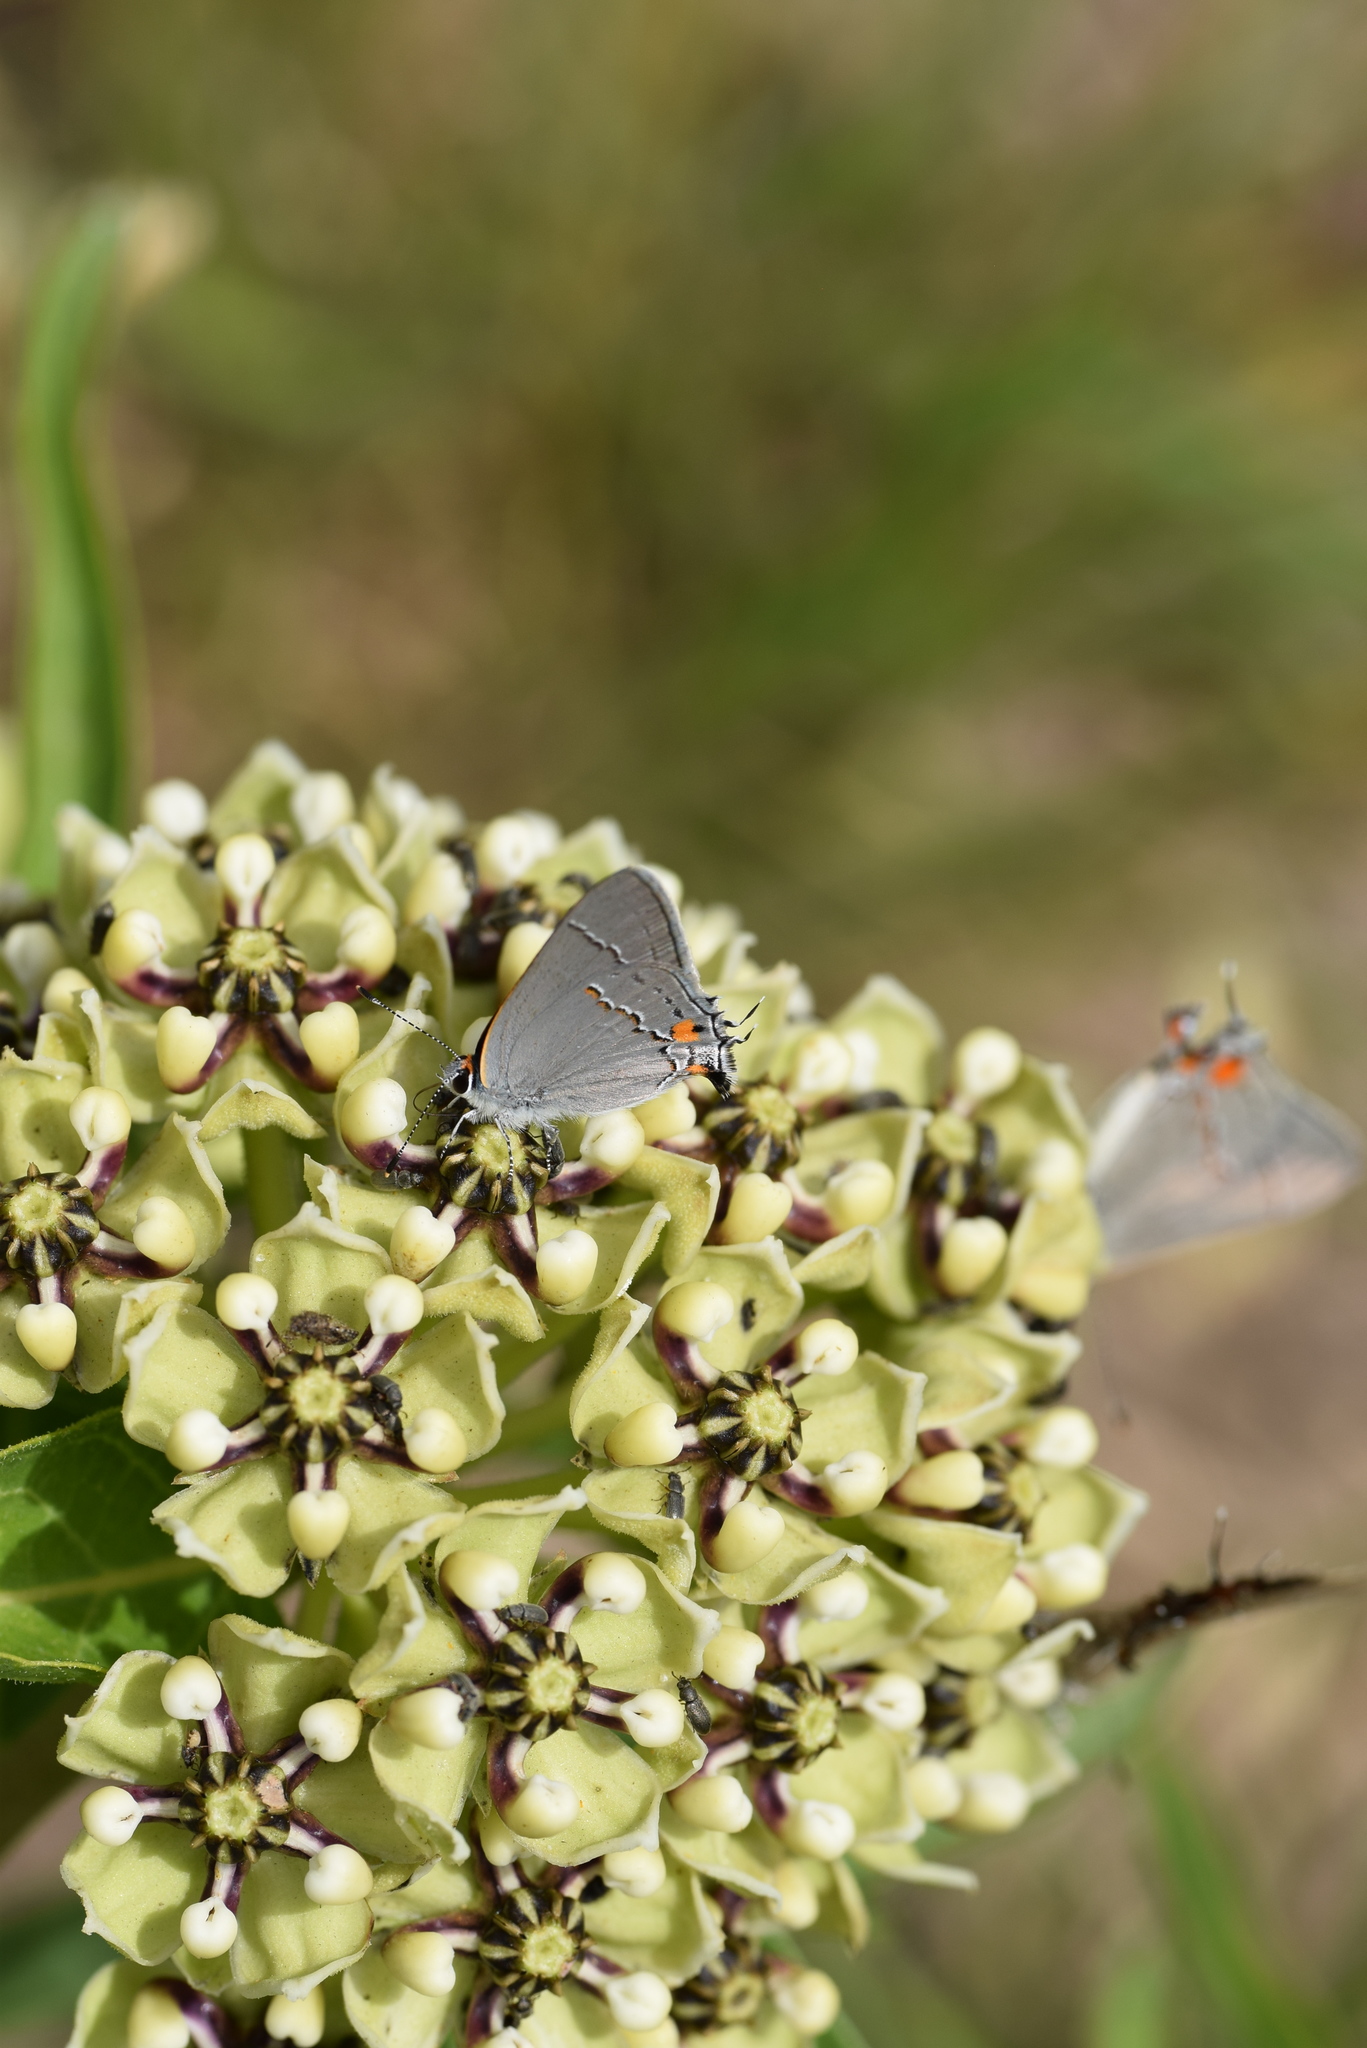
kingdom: Plantae
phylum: Tracheophyta
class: Magnoliopsida
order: Gentianales
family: Apocynaceae
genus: Asclepias
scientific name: Asclepias asperula
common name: Antelope horns
